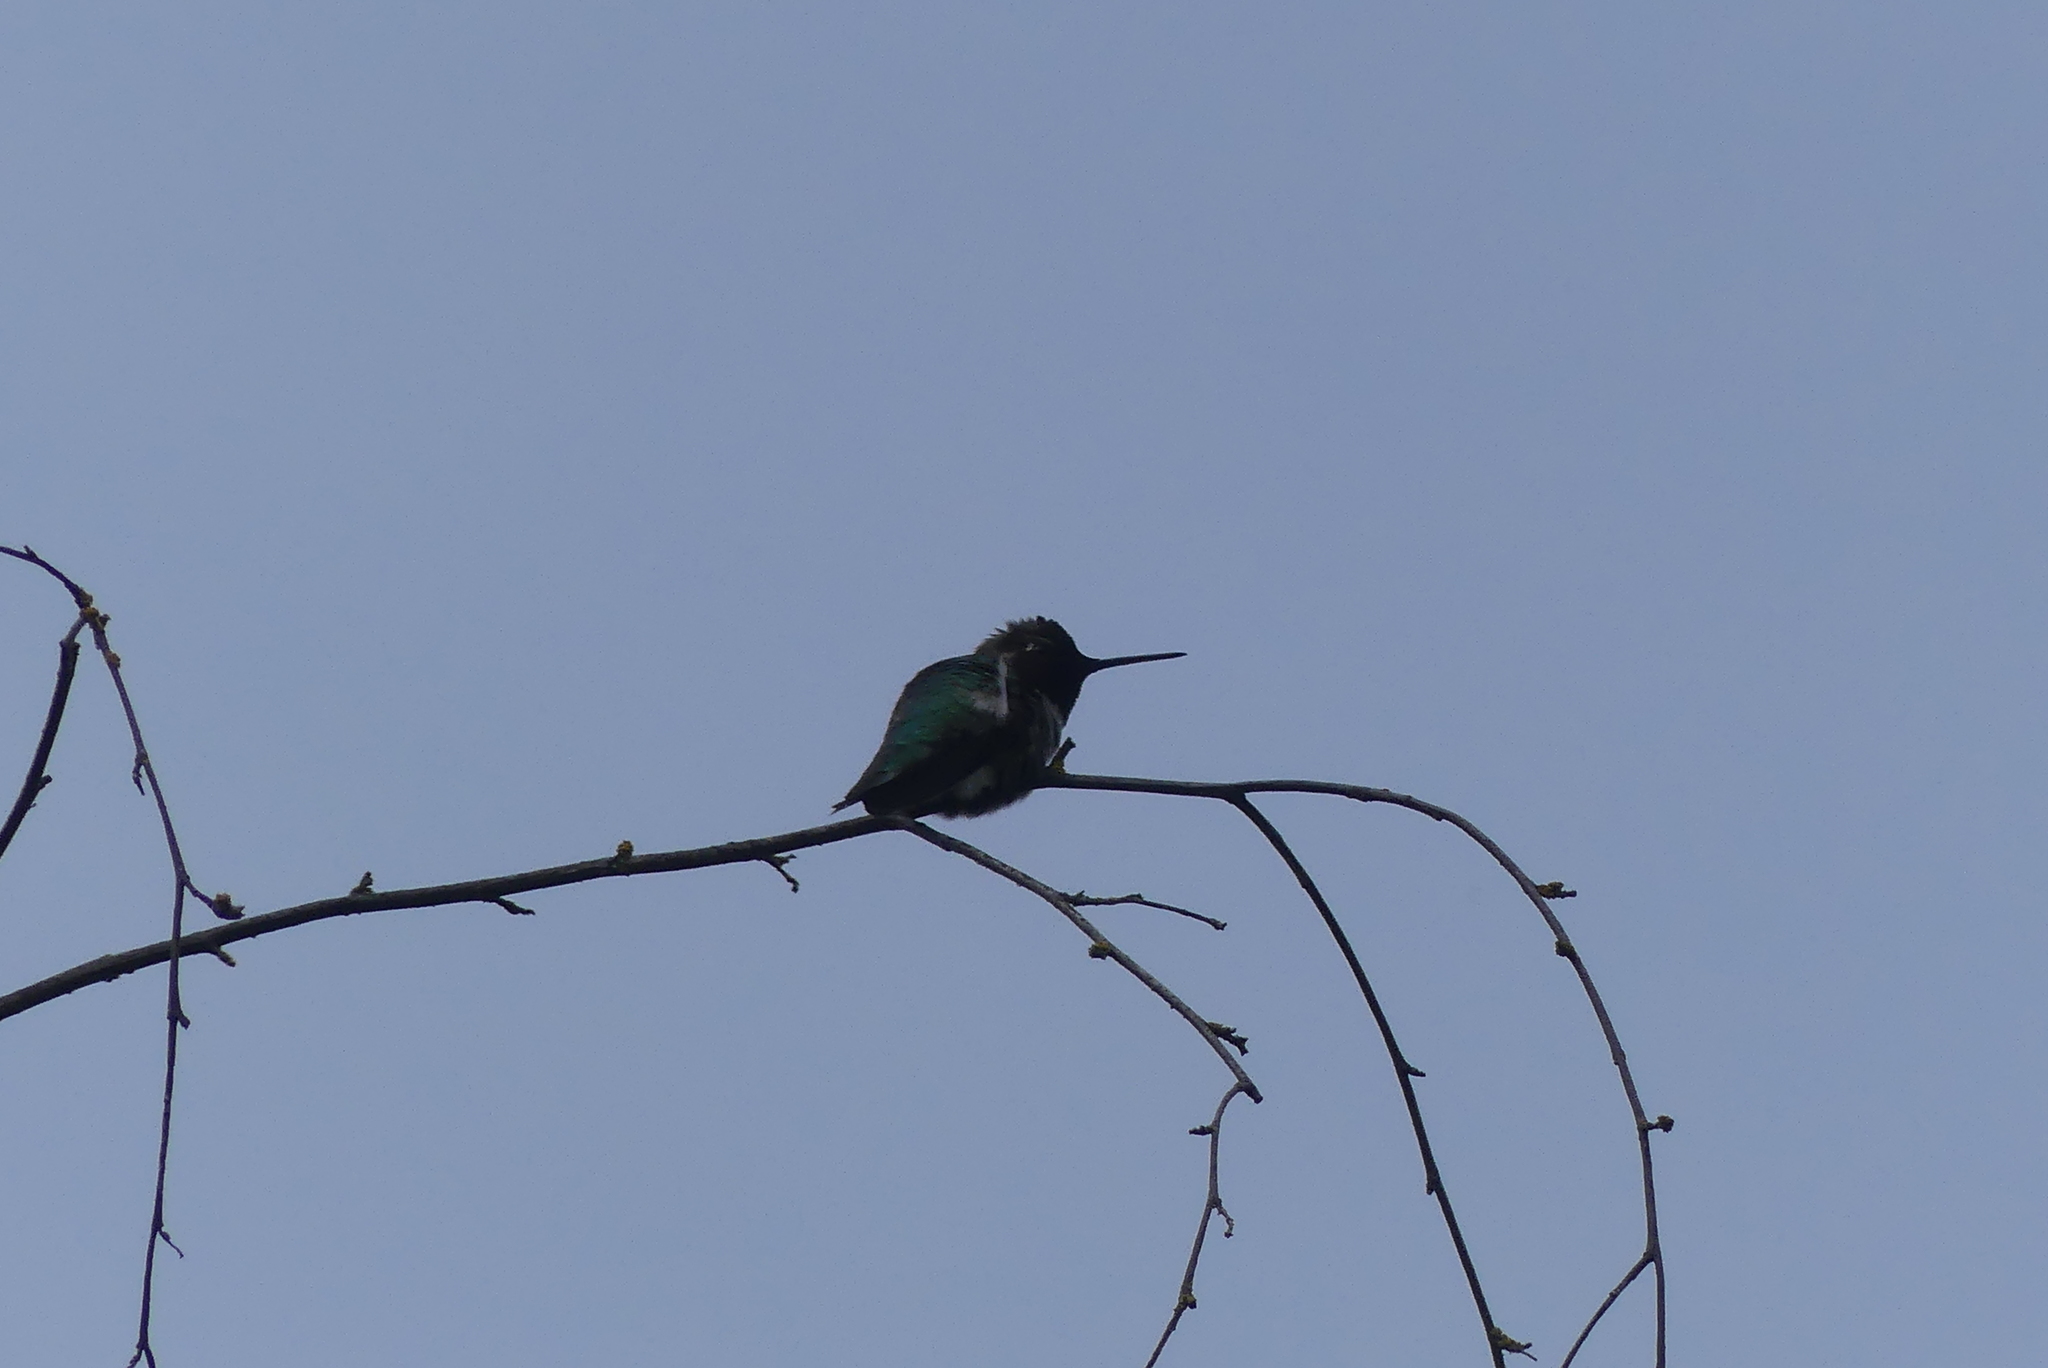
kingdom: Animalia
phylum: Chordata
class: Aves
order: Apodiformes
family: Trochilidae
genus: Calypte
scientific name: Calypte anna
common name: Anna's hummingbird
